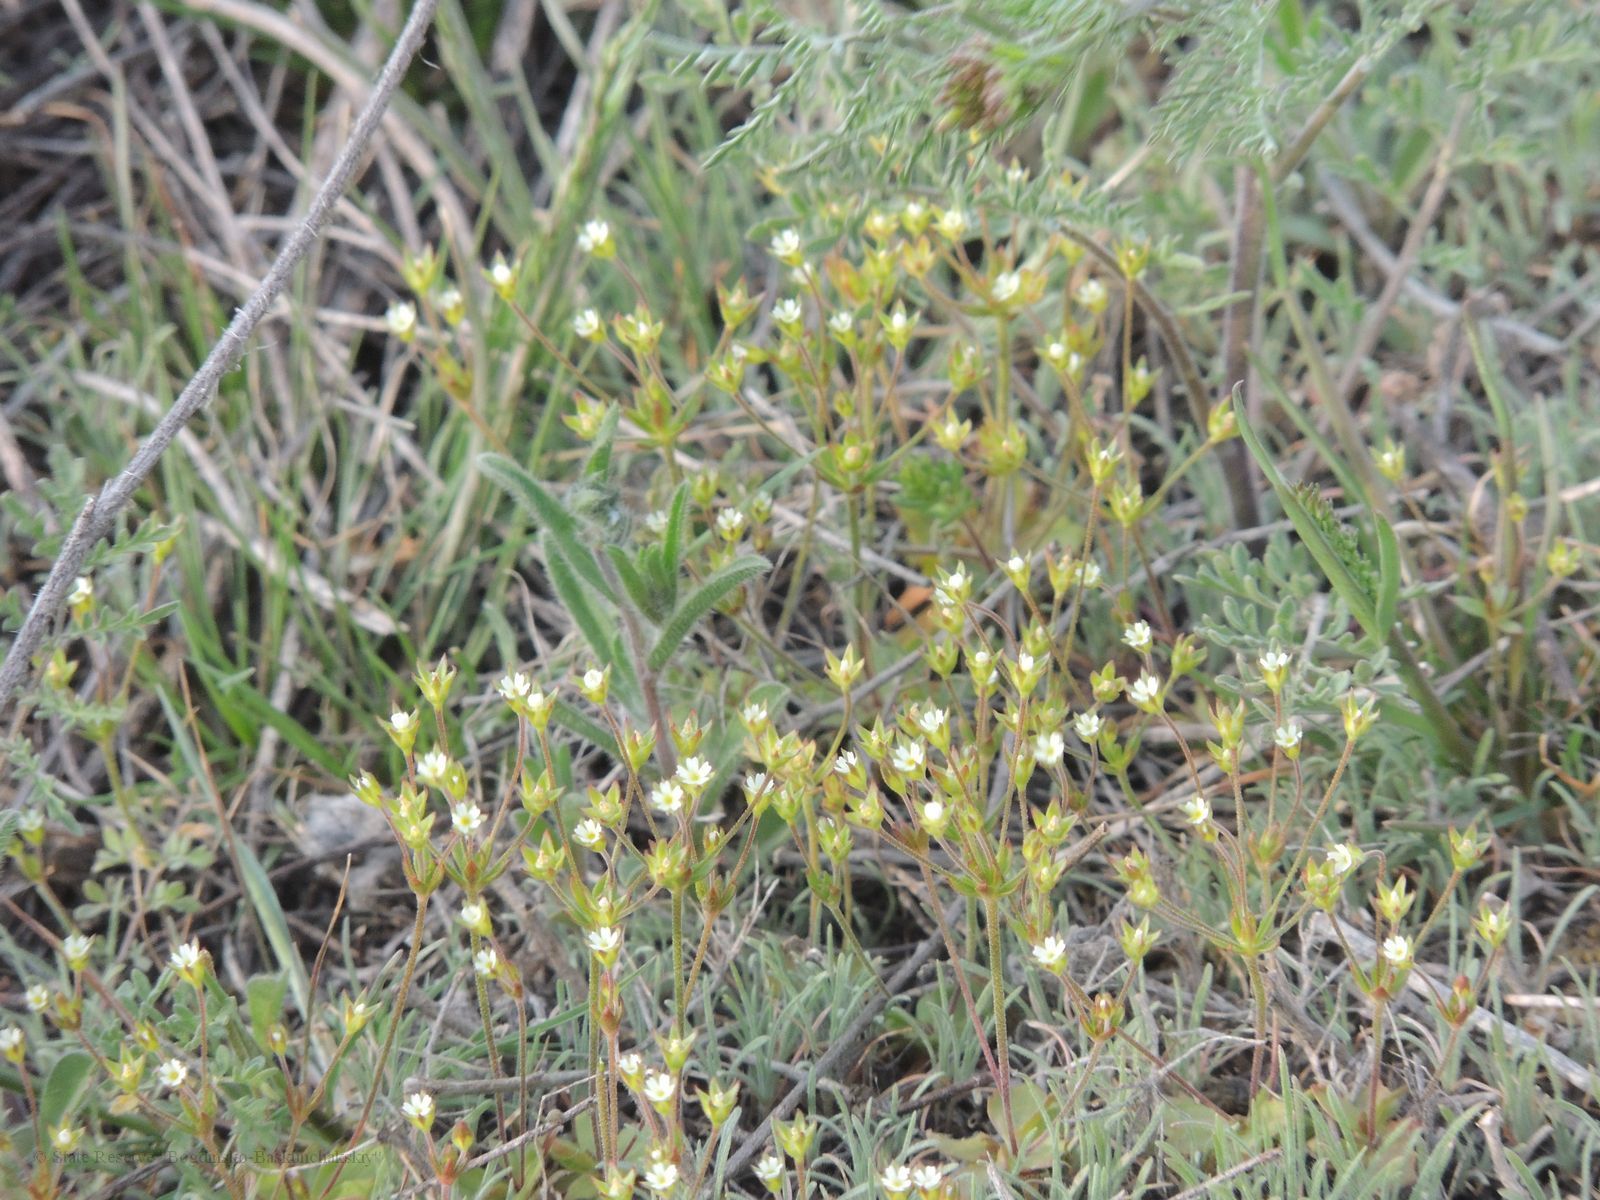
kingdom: Plantae
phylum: Tracheophyta
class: Magnoliopsida
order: Ericales
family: Primulaceae
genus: Androsace
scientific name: Androsace elongata
